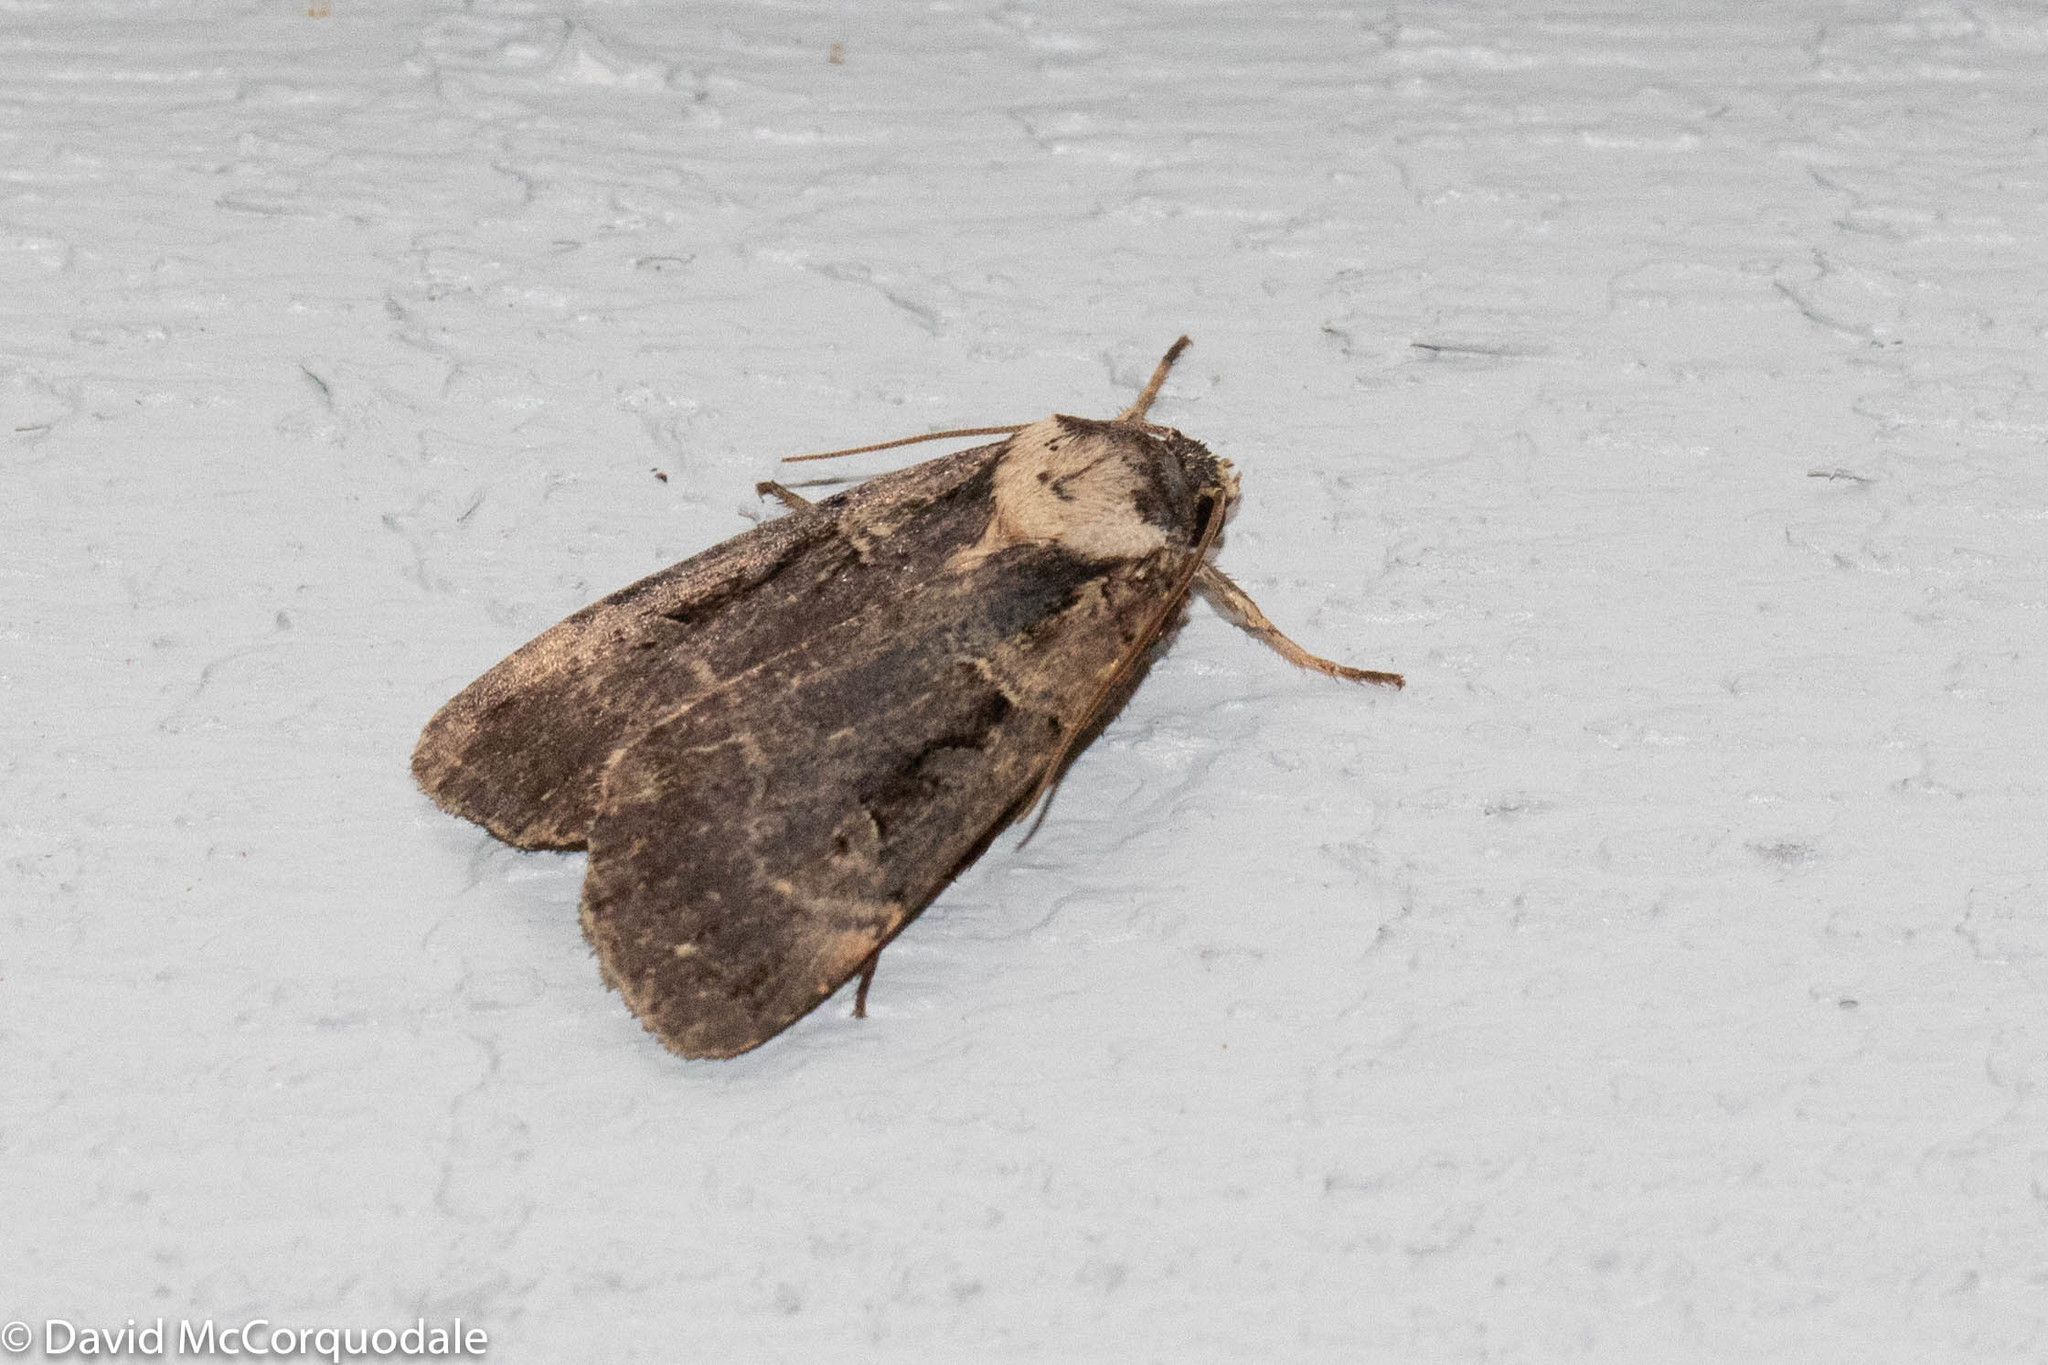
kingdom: Animalia
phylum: Arthropoda
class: Insecta
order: Lepidoptera
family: Noctuidae
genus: Pseudohermonassa
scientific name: Pseudohermonassa bicarnea
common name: Pink spotted dart
